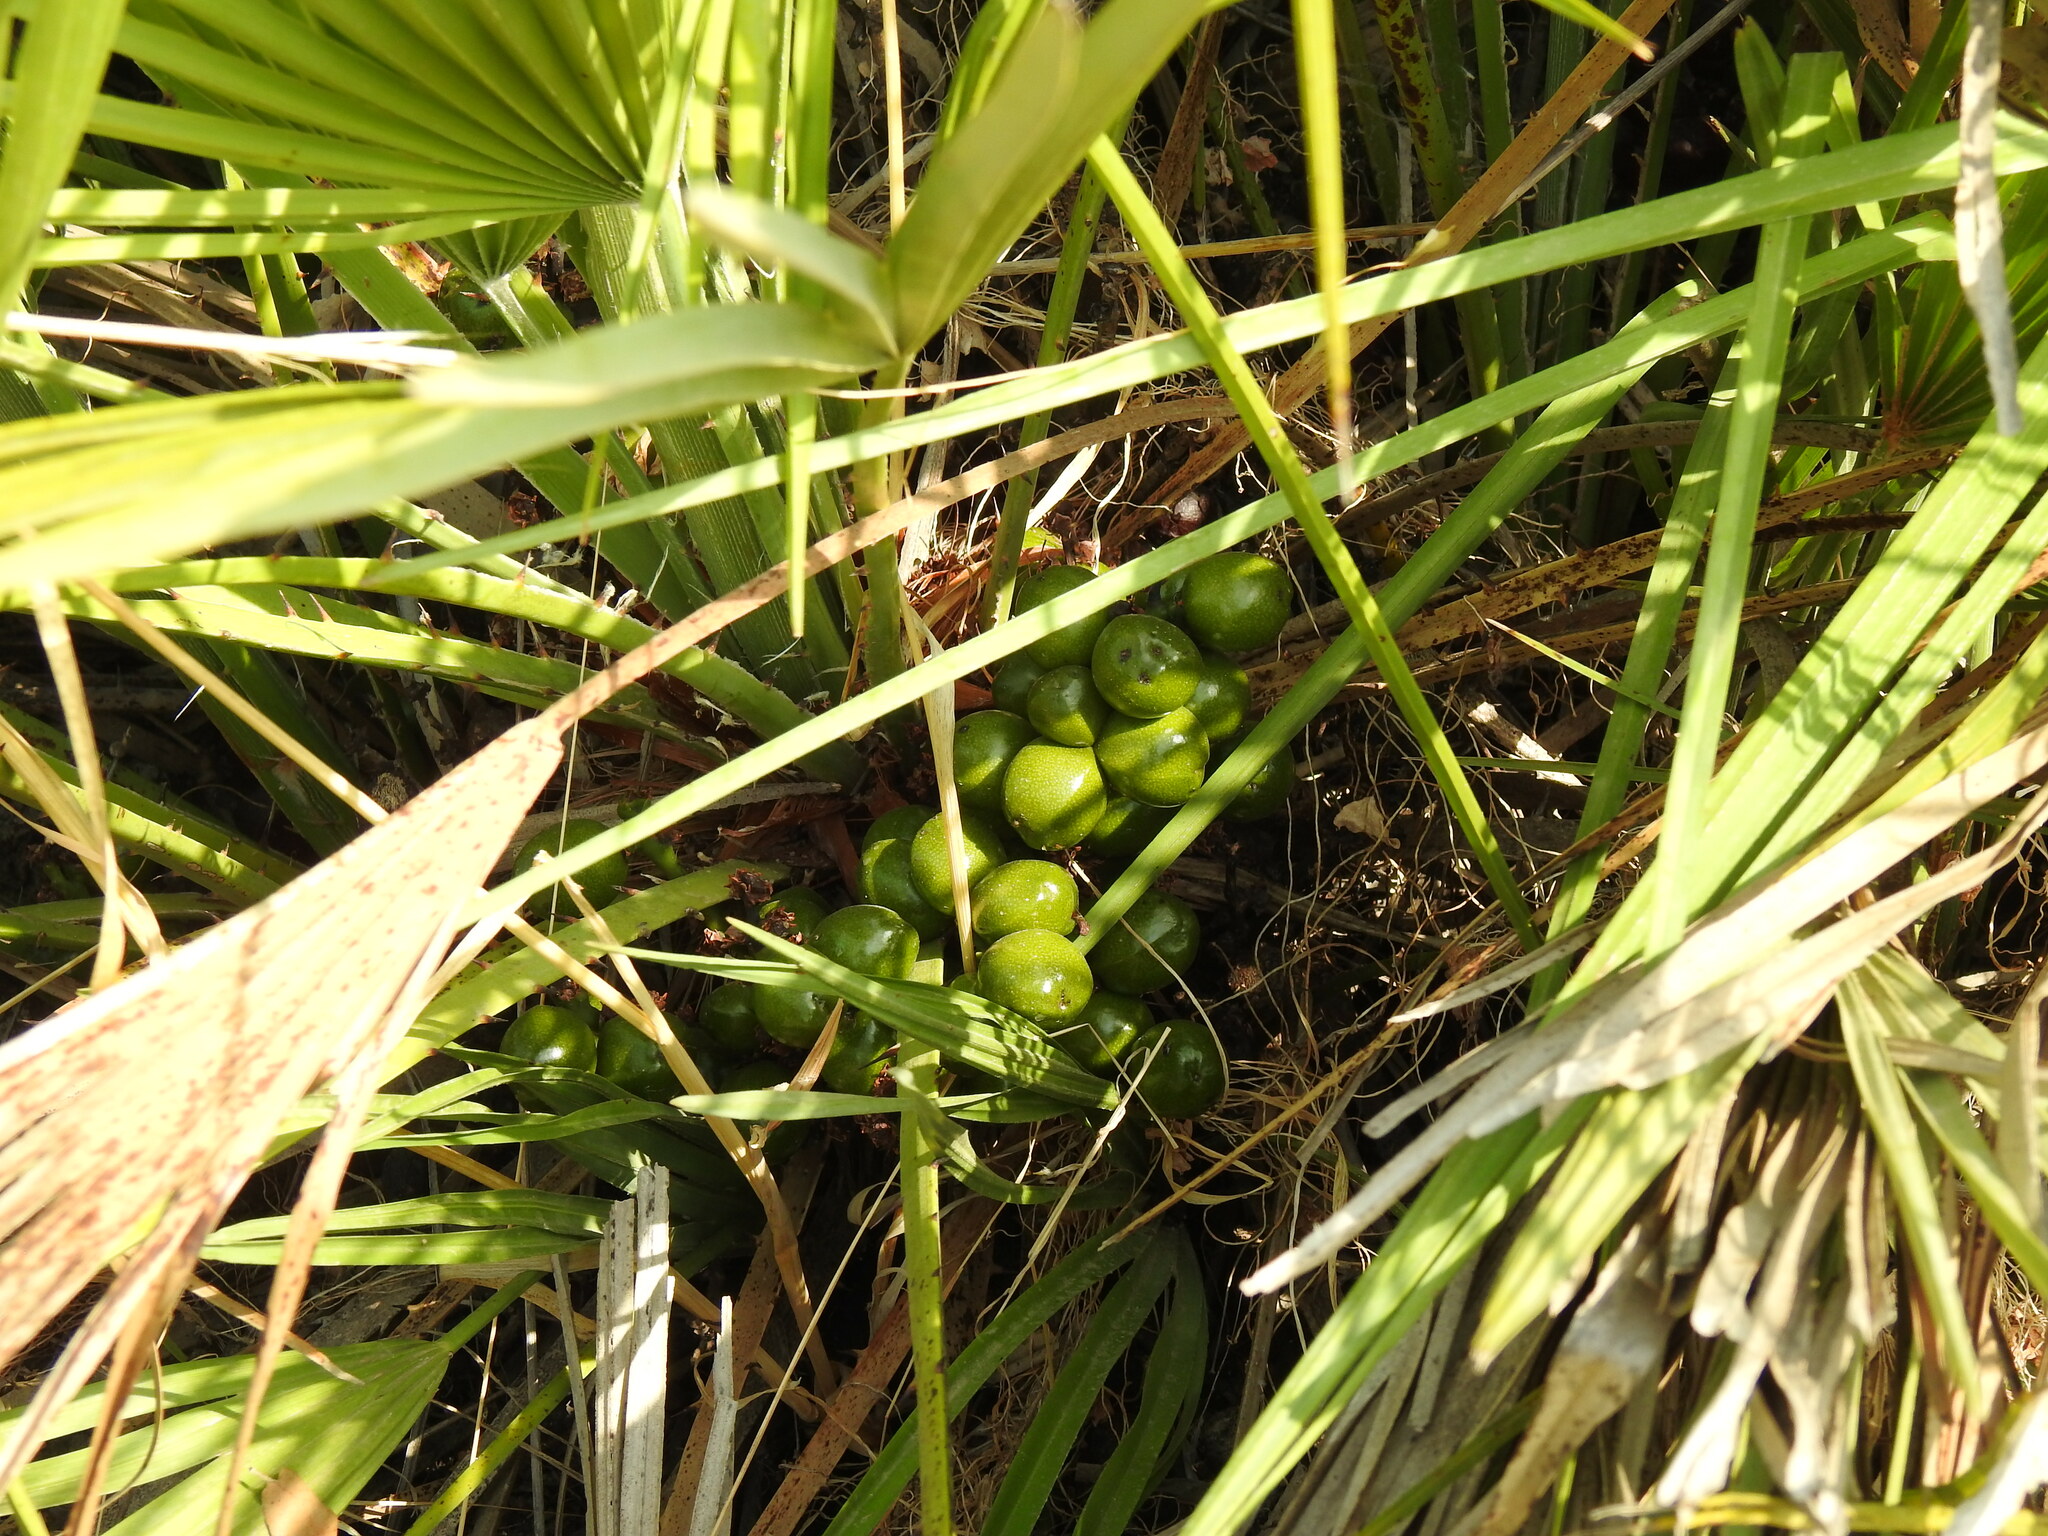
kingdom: Plantae
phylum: Tracheophyta
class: Liliopsida
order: Arecales
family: Arecaceae
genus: Chamaerops
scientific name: Chamaerops humilis
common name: Dwarf fan palm
